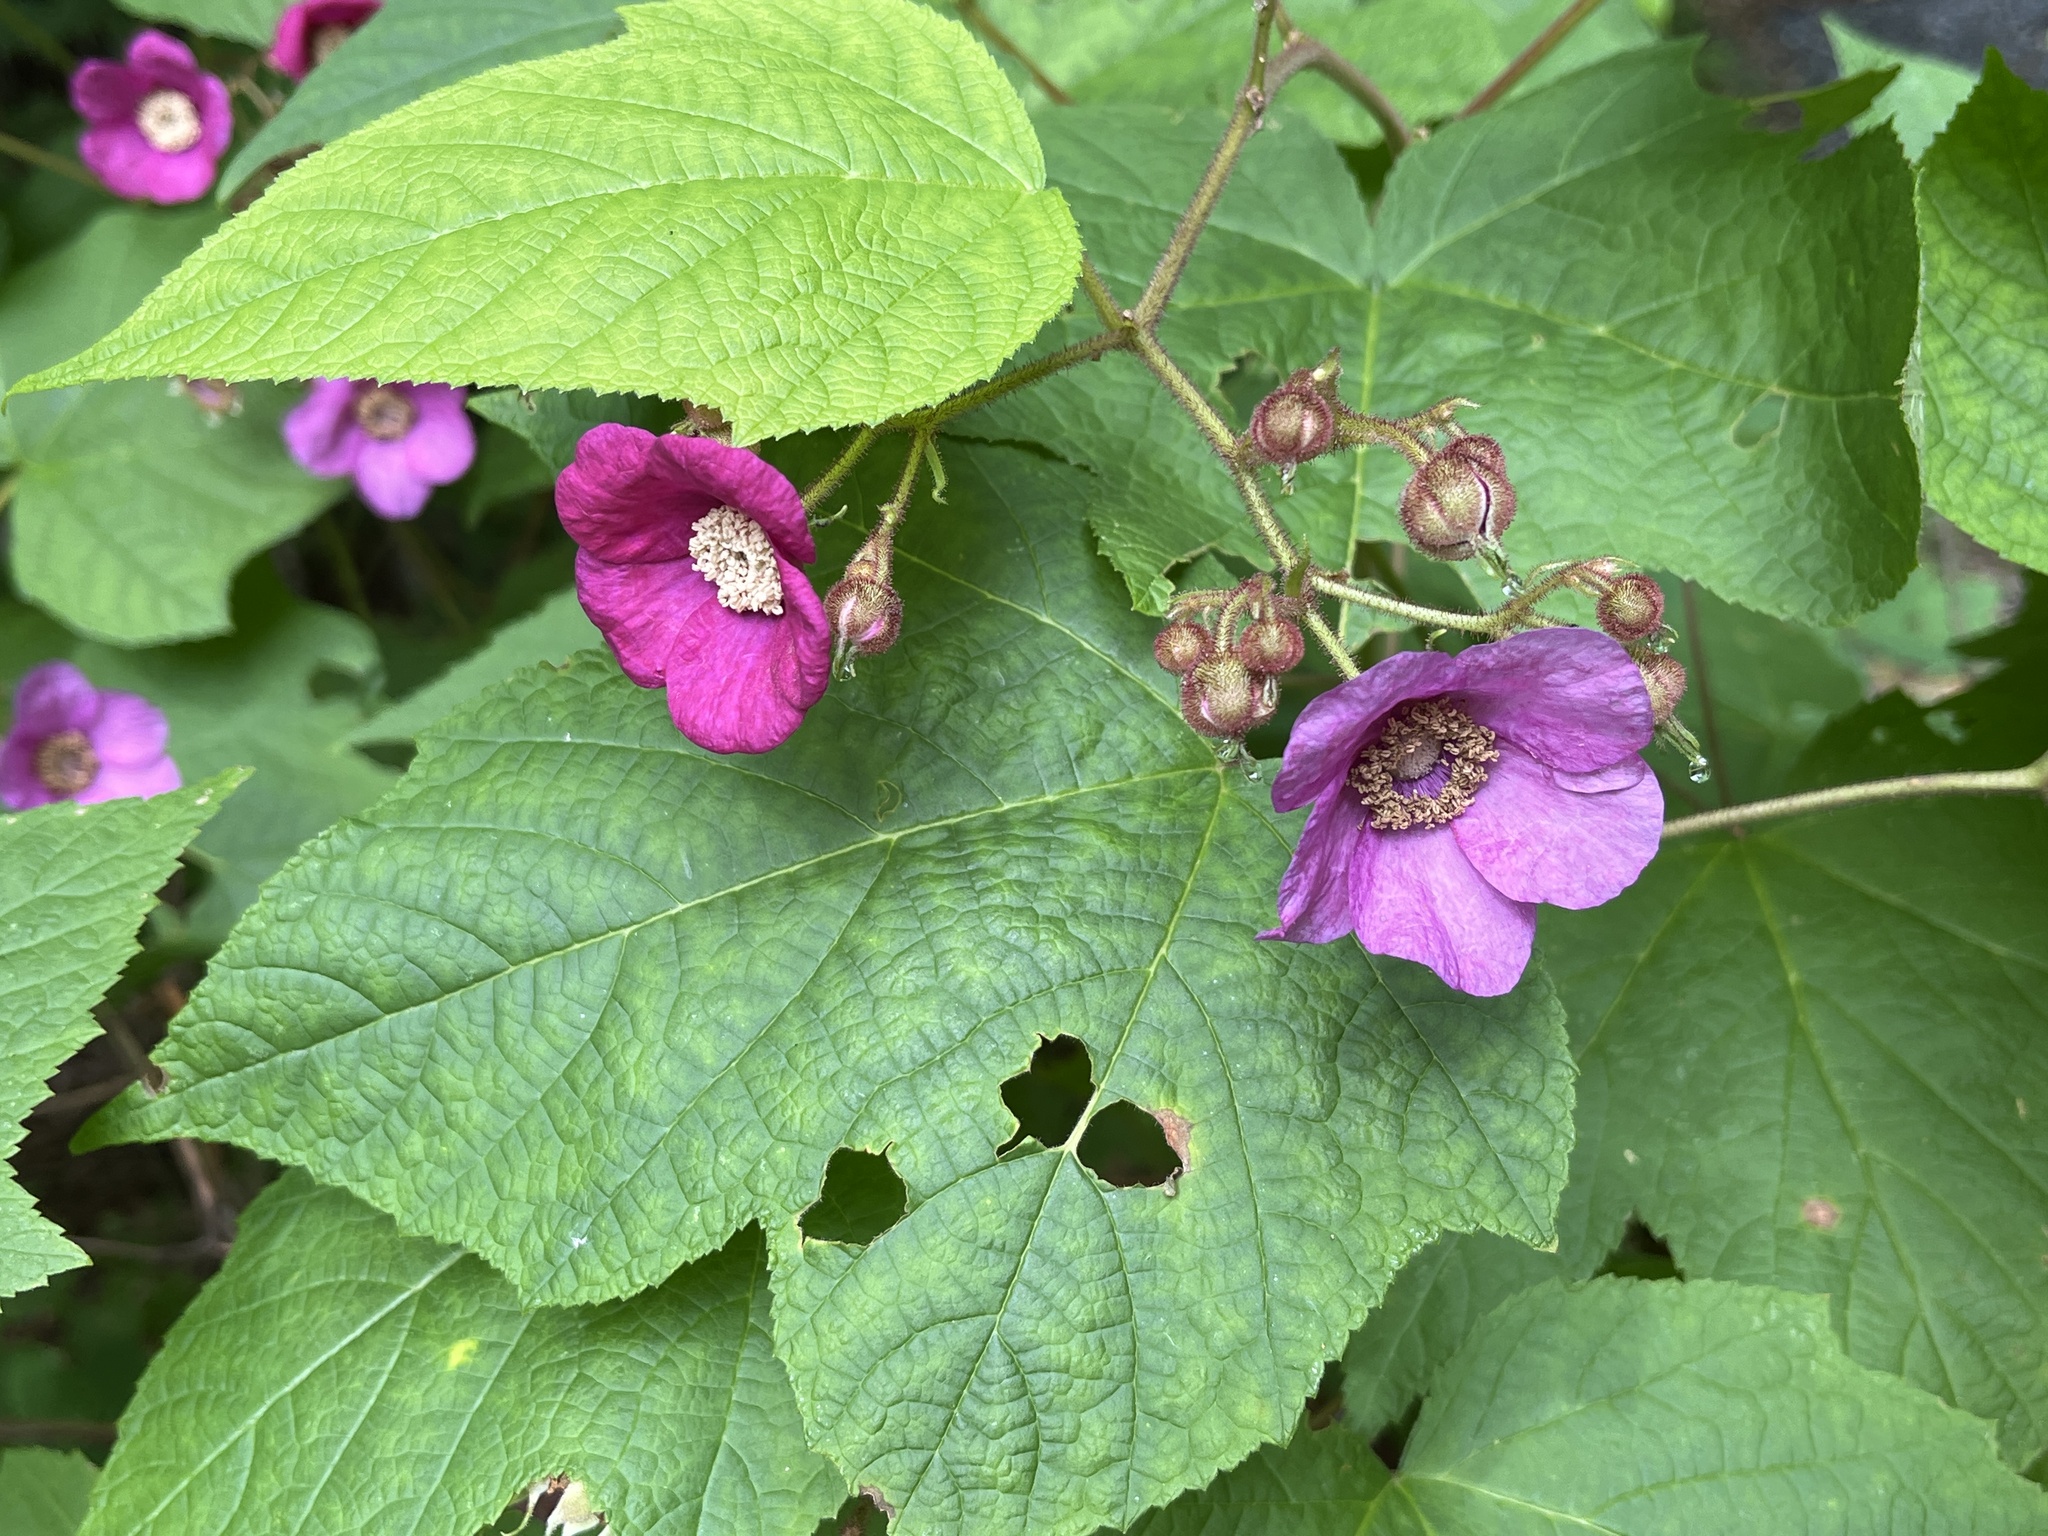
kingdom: Plantae
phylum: Tracheophyta
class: Magnoliopsida
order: Rosales
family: Rosaceae
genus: Rubus
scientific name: Rubus odoratus
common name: Purple-flowered raspberry
